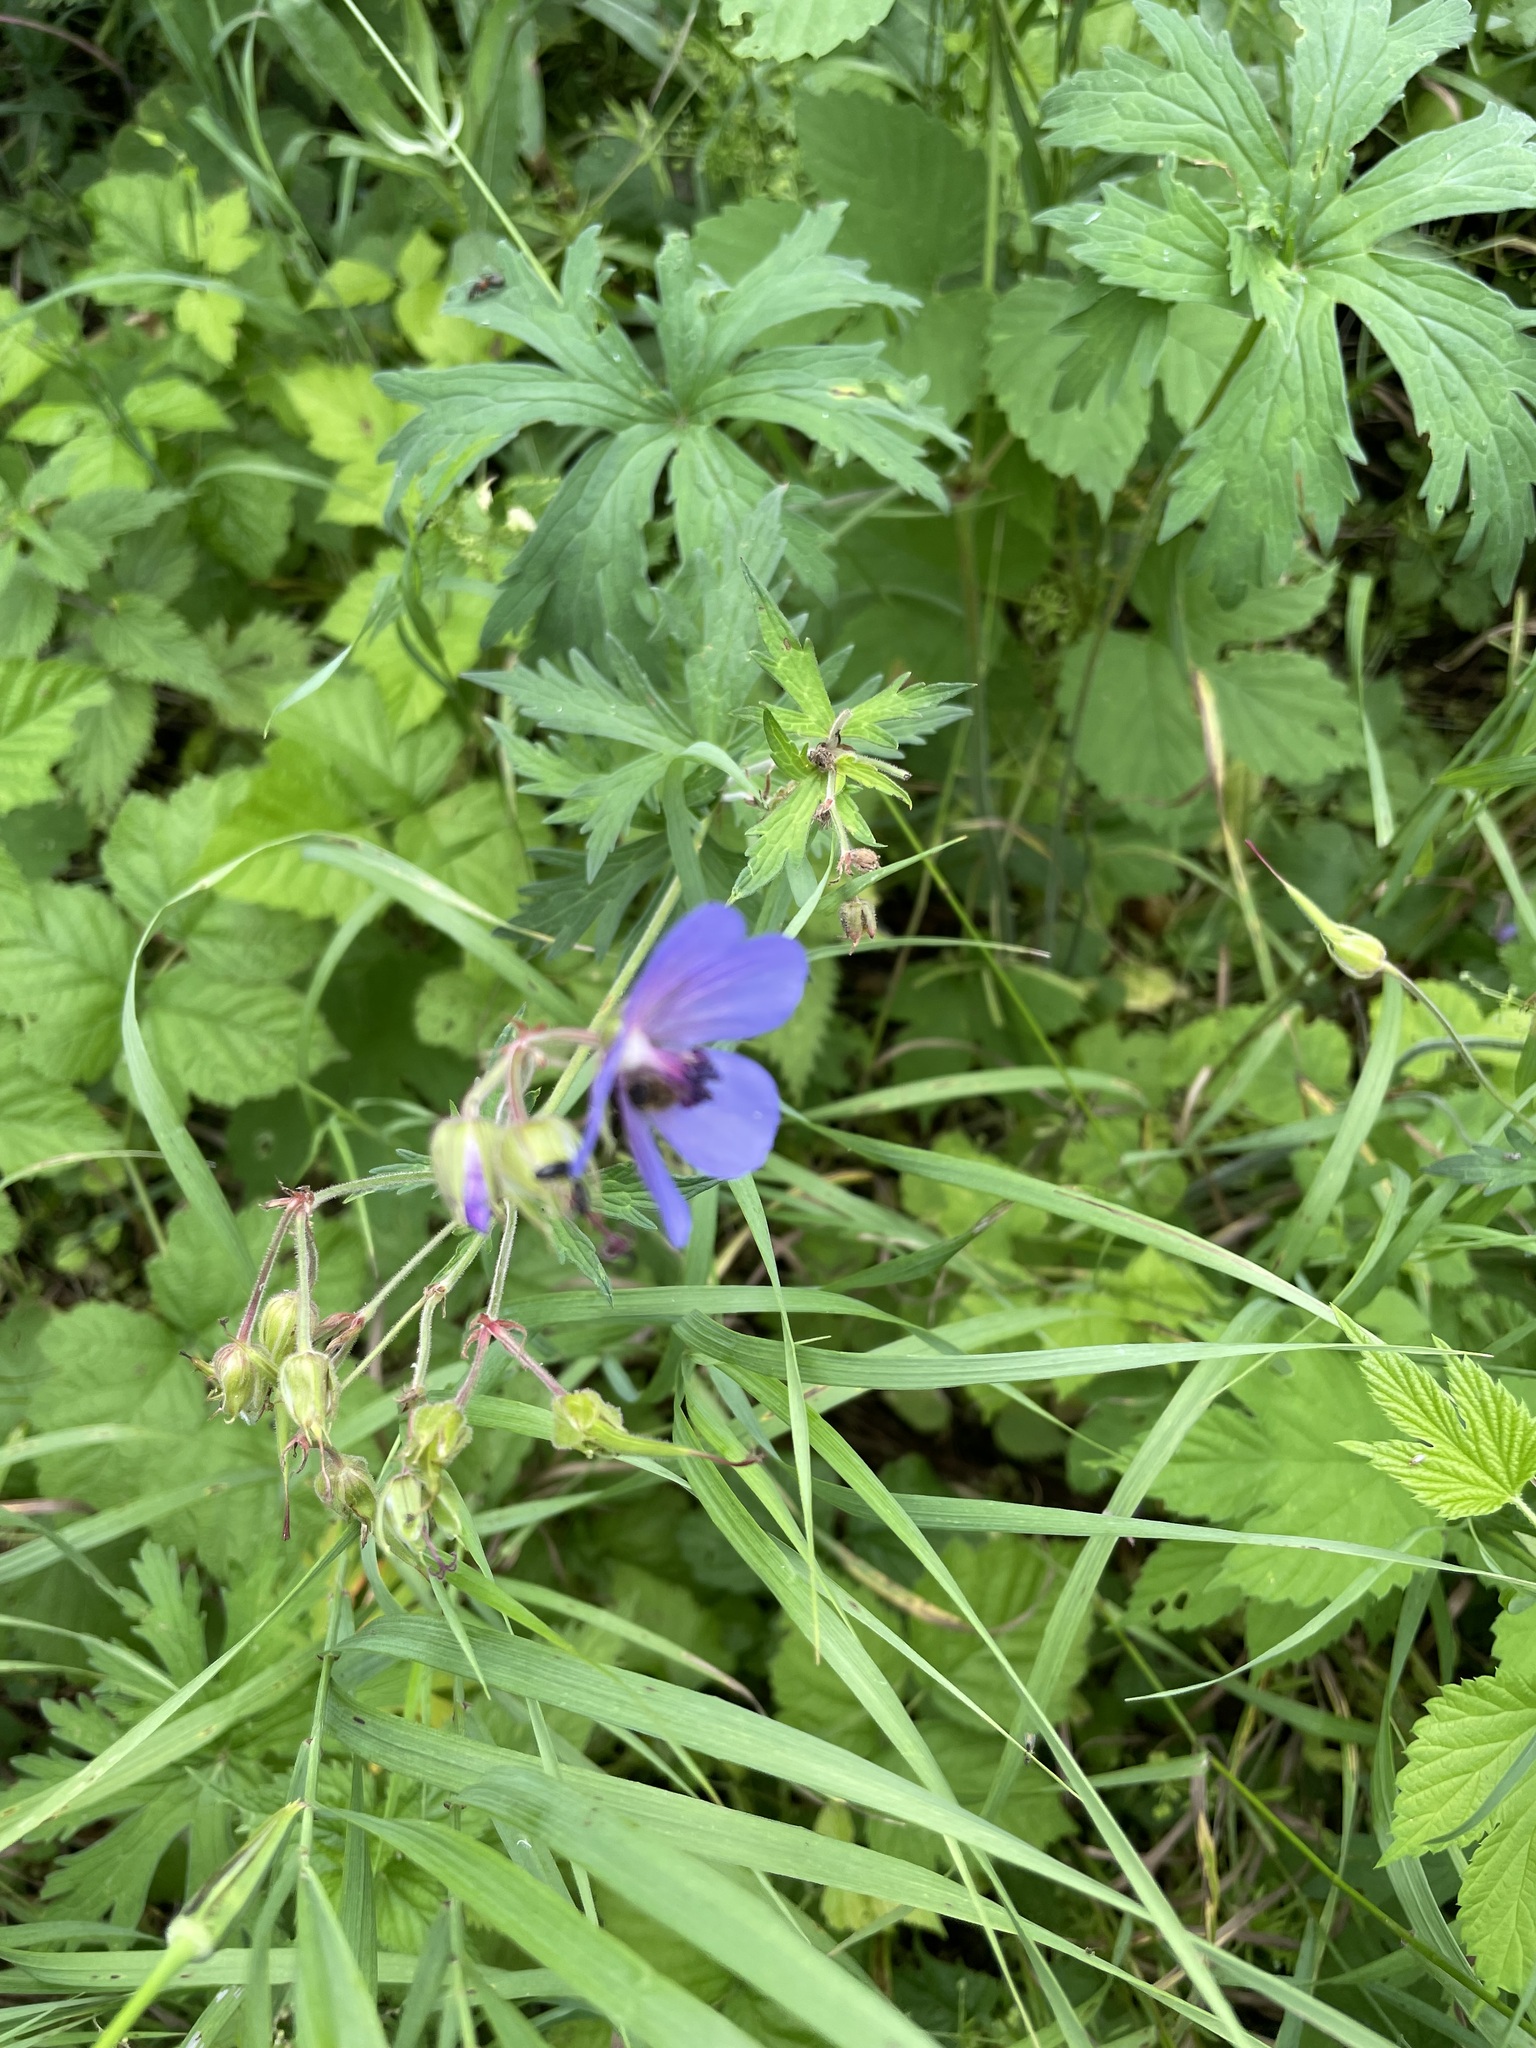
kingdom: Plantae
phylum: Tracheophyta
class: Magnoliopsida
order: Geraniales
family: Geraniaceae
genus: Geranium
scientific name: Geranium pratense
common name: Meadow crane's-bill
